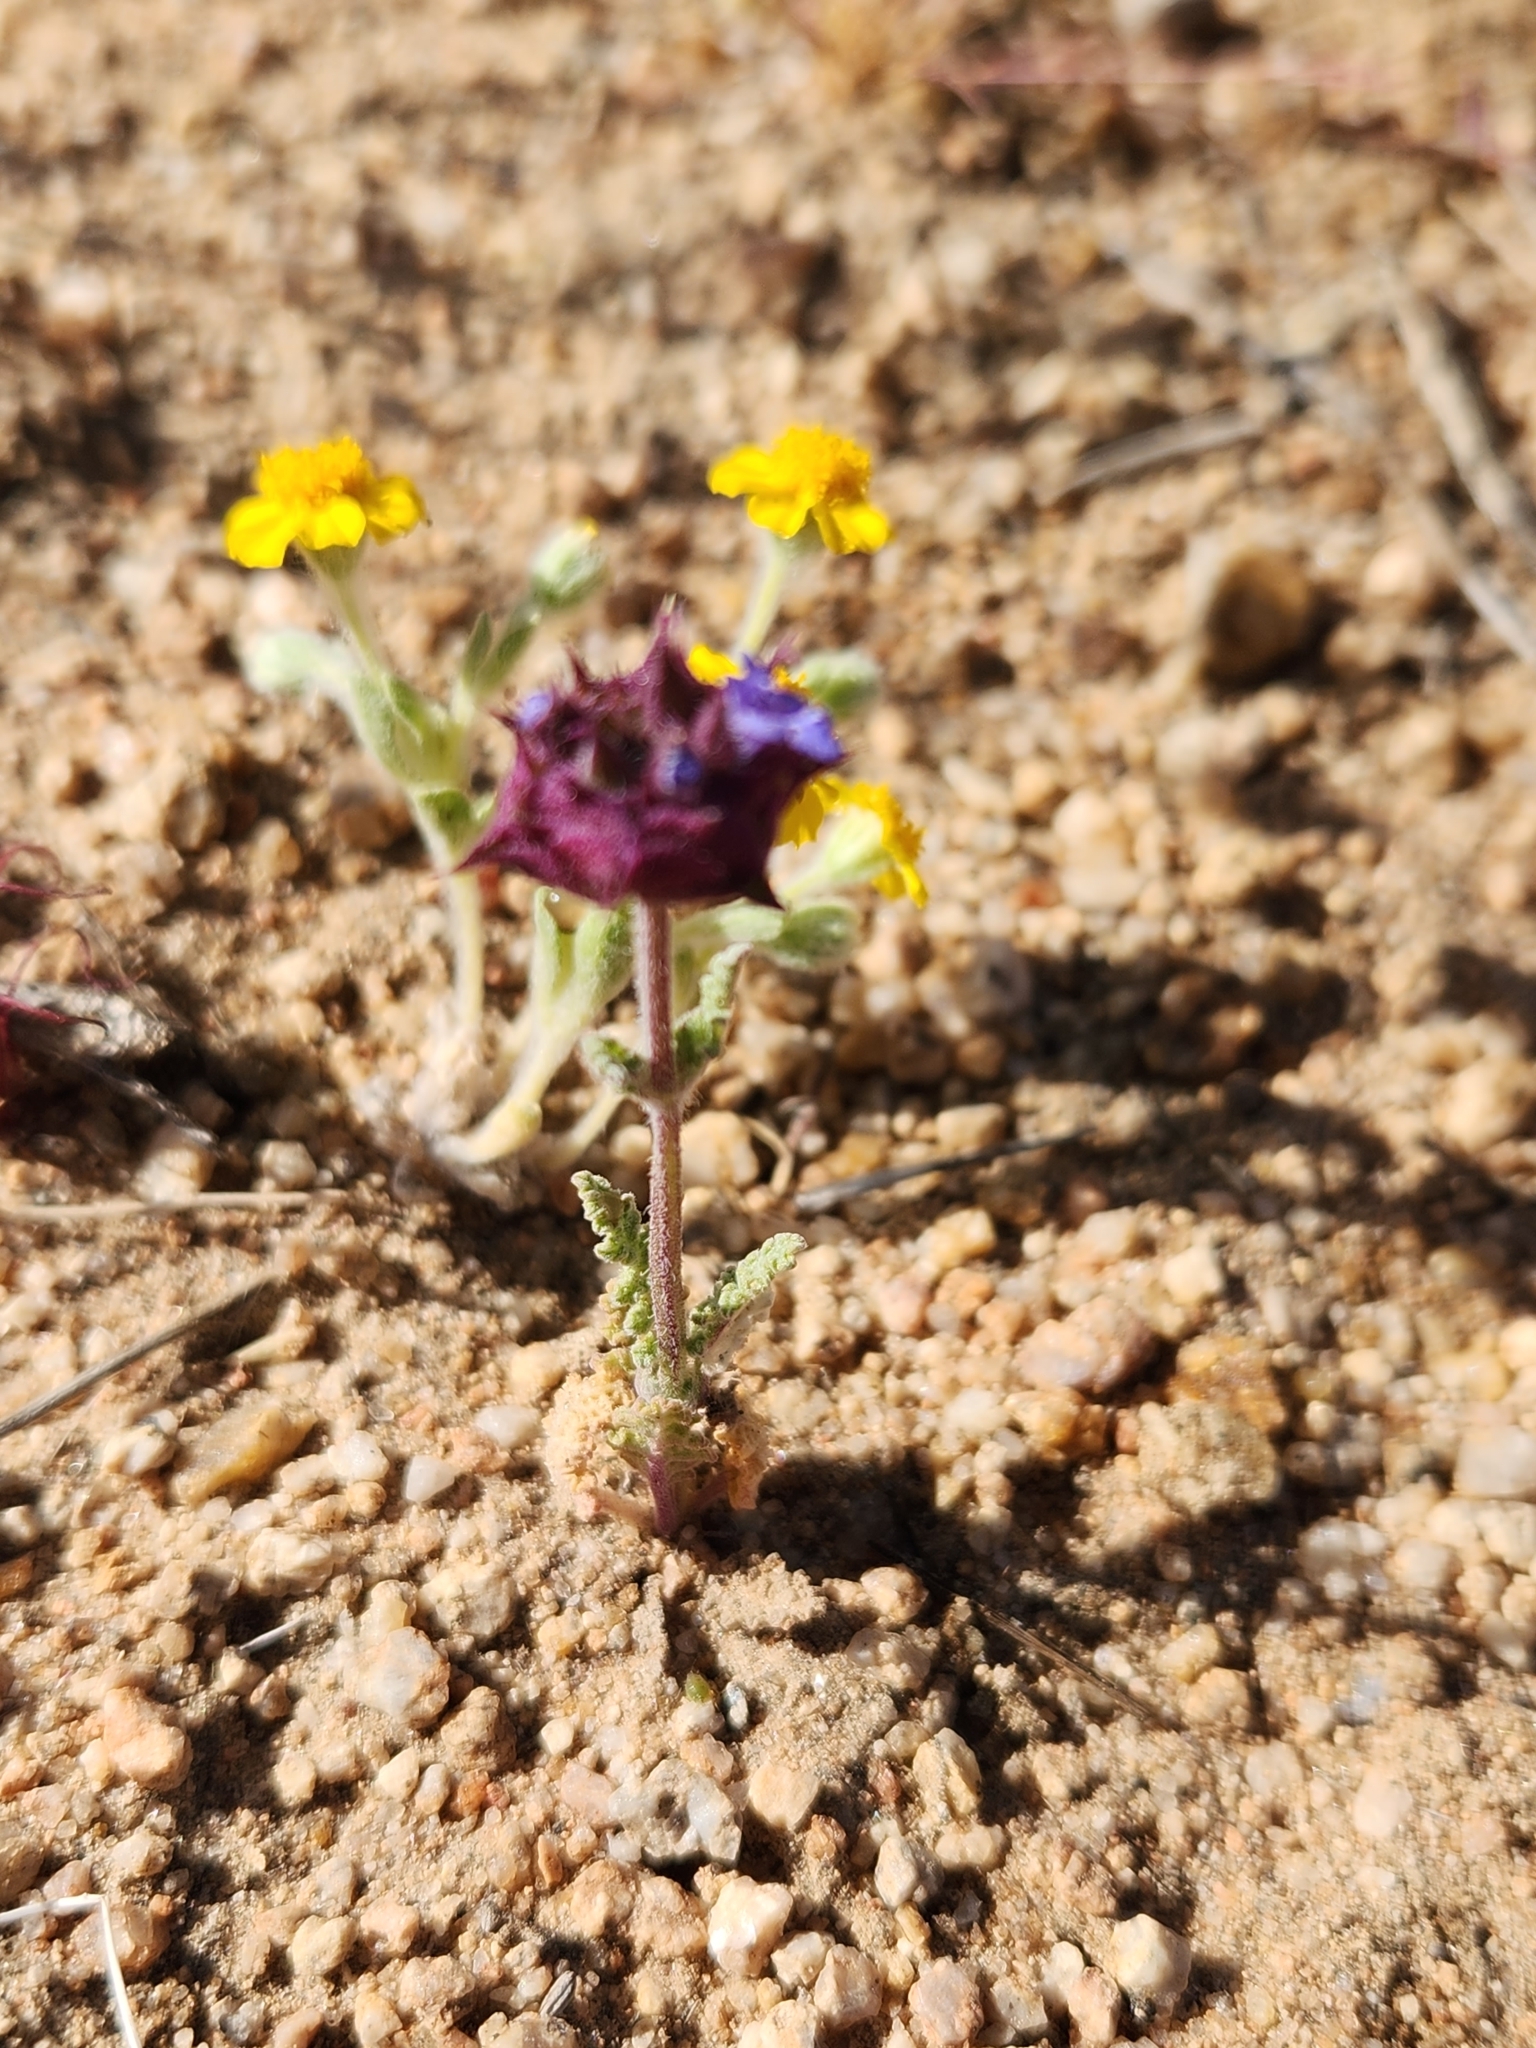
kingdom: Plantae
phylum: Tracheophyta
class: Magnoliopsida
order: Lamiales
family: Lamiaceae
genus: Salvia
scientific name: Salvia columbariae
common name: Chia
